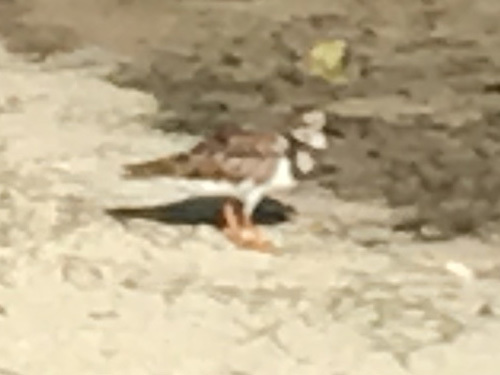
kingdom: Animalia
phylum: Chordata
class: Aves
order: Charadriiformes
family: Scolopacidae
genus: Arenaria
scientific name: Arenaria interpres
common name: Ruddy turnstone
